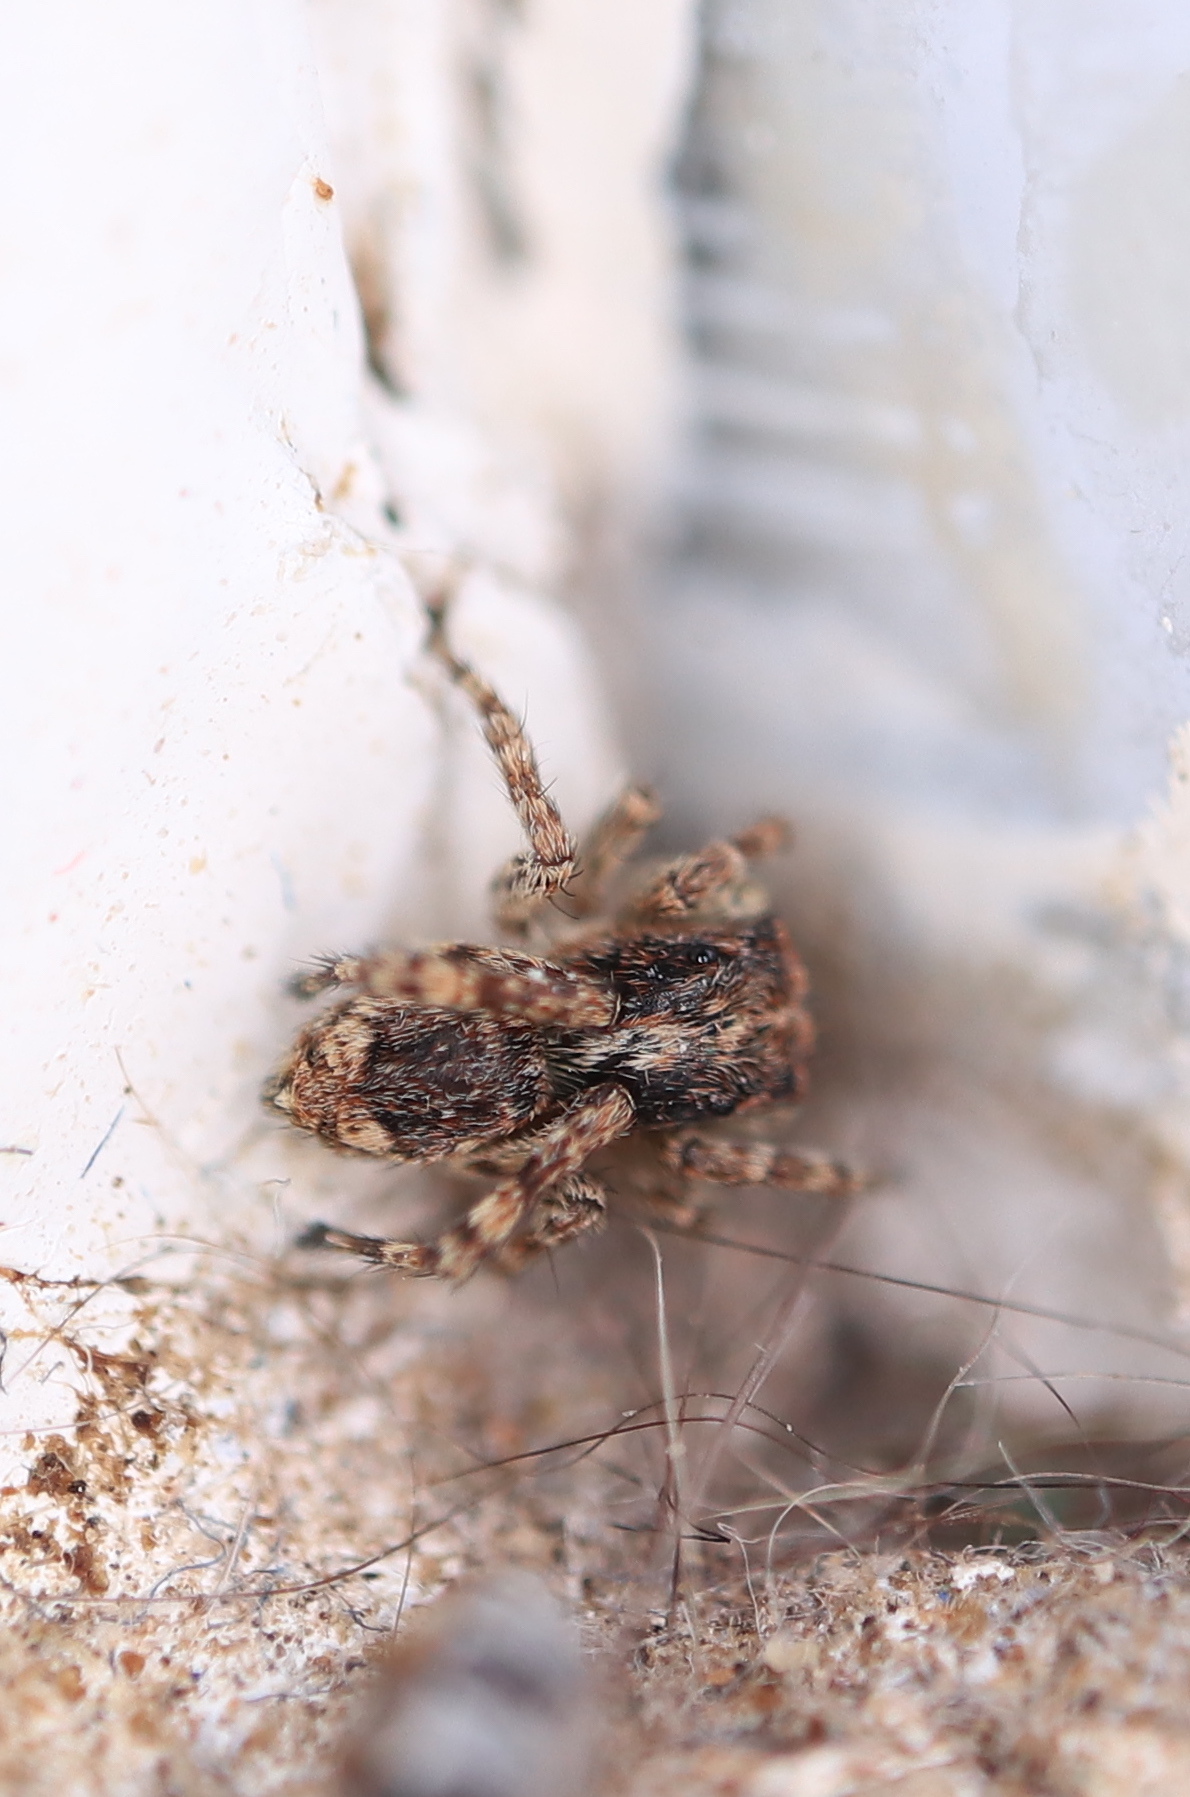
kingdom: Animalia
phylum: Arthropoda
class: Arachnida
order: Araneae
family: Salticidae
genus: Attulus
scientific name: Attulus fasciger
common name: Asiatic wall jumping spider
